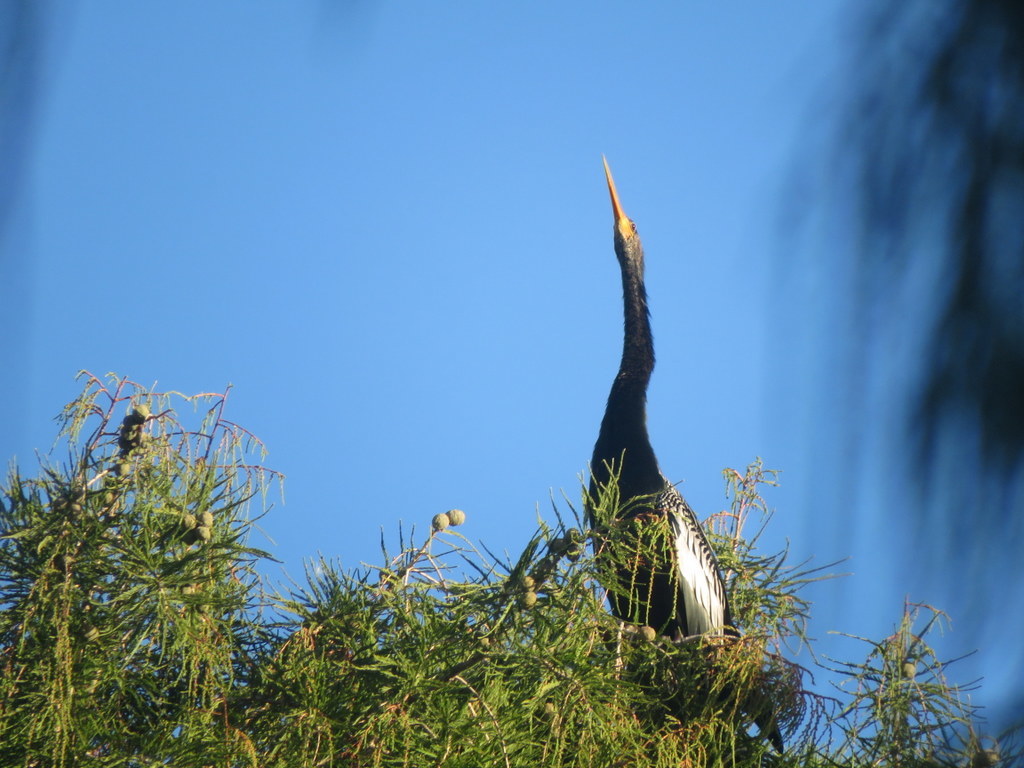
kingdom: Animalia
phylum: Chordata
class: Aves
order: Suliformes
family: Anhingidae
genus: Anhinga
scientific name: Anhinga anhinga
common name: Anhinga
